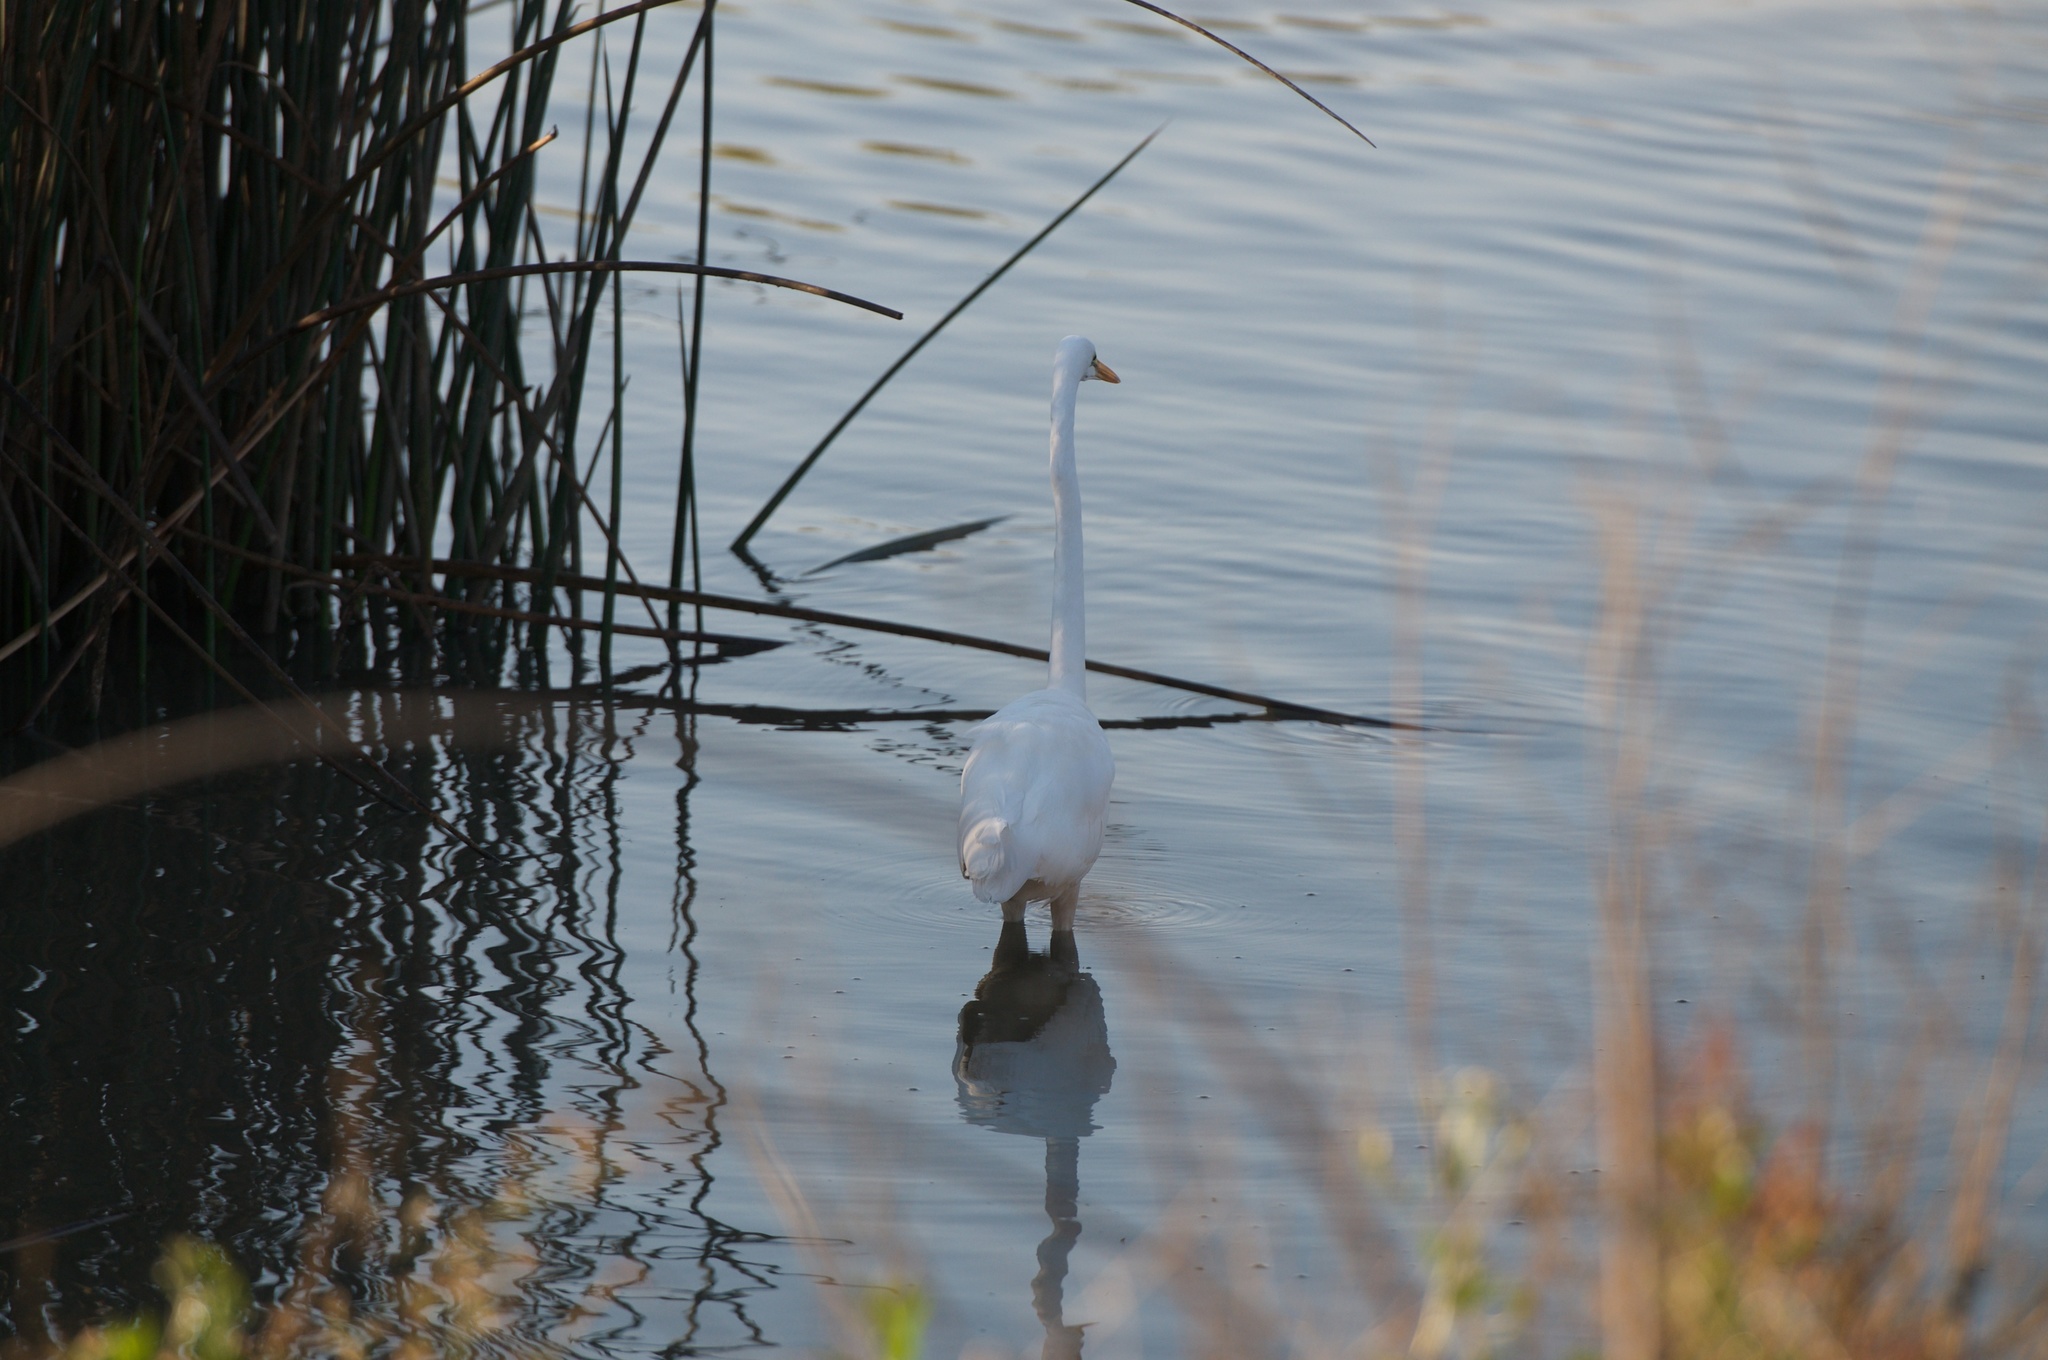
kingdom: Animalia
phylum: Chordata
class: Aves
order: Pelecaniformes
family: Ardeidae
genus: Ardea
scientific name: Ardea alba
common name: Great egret
